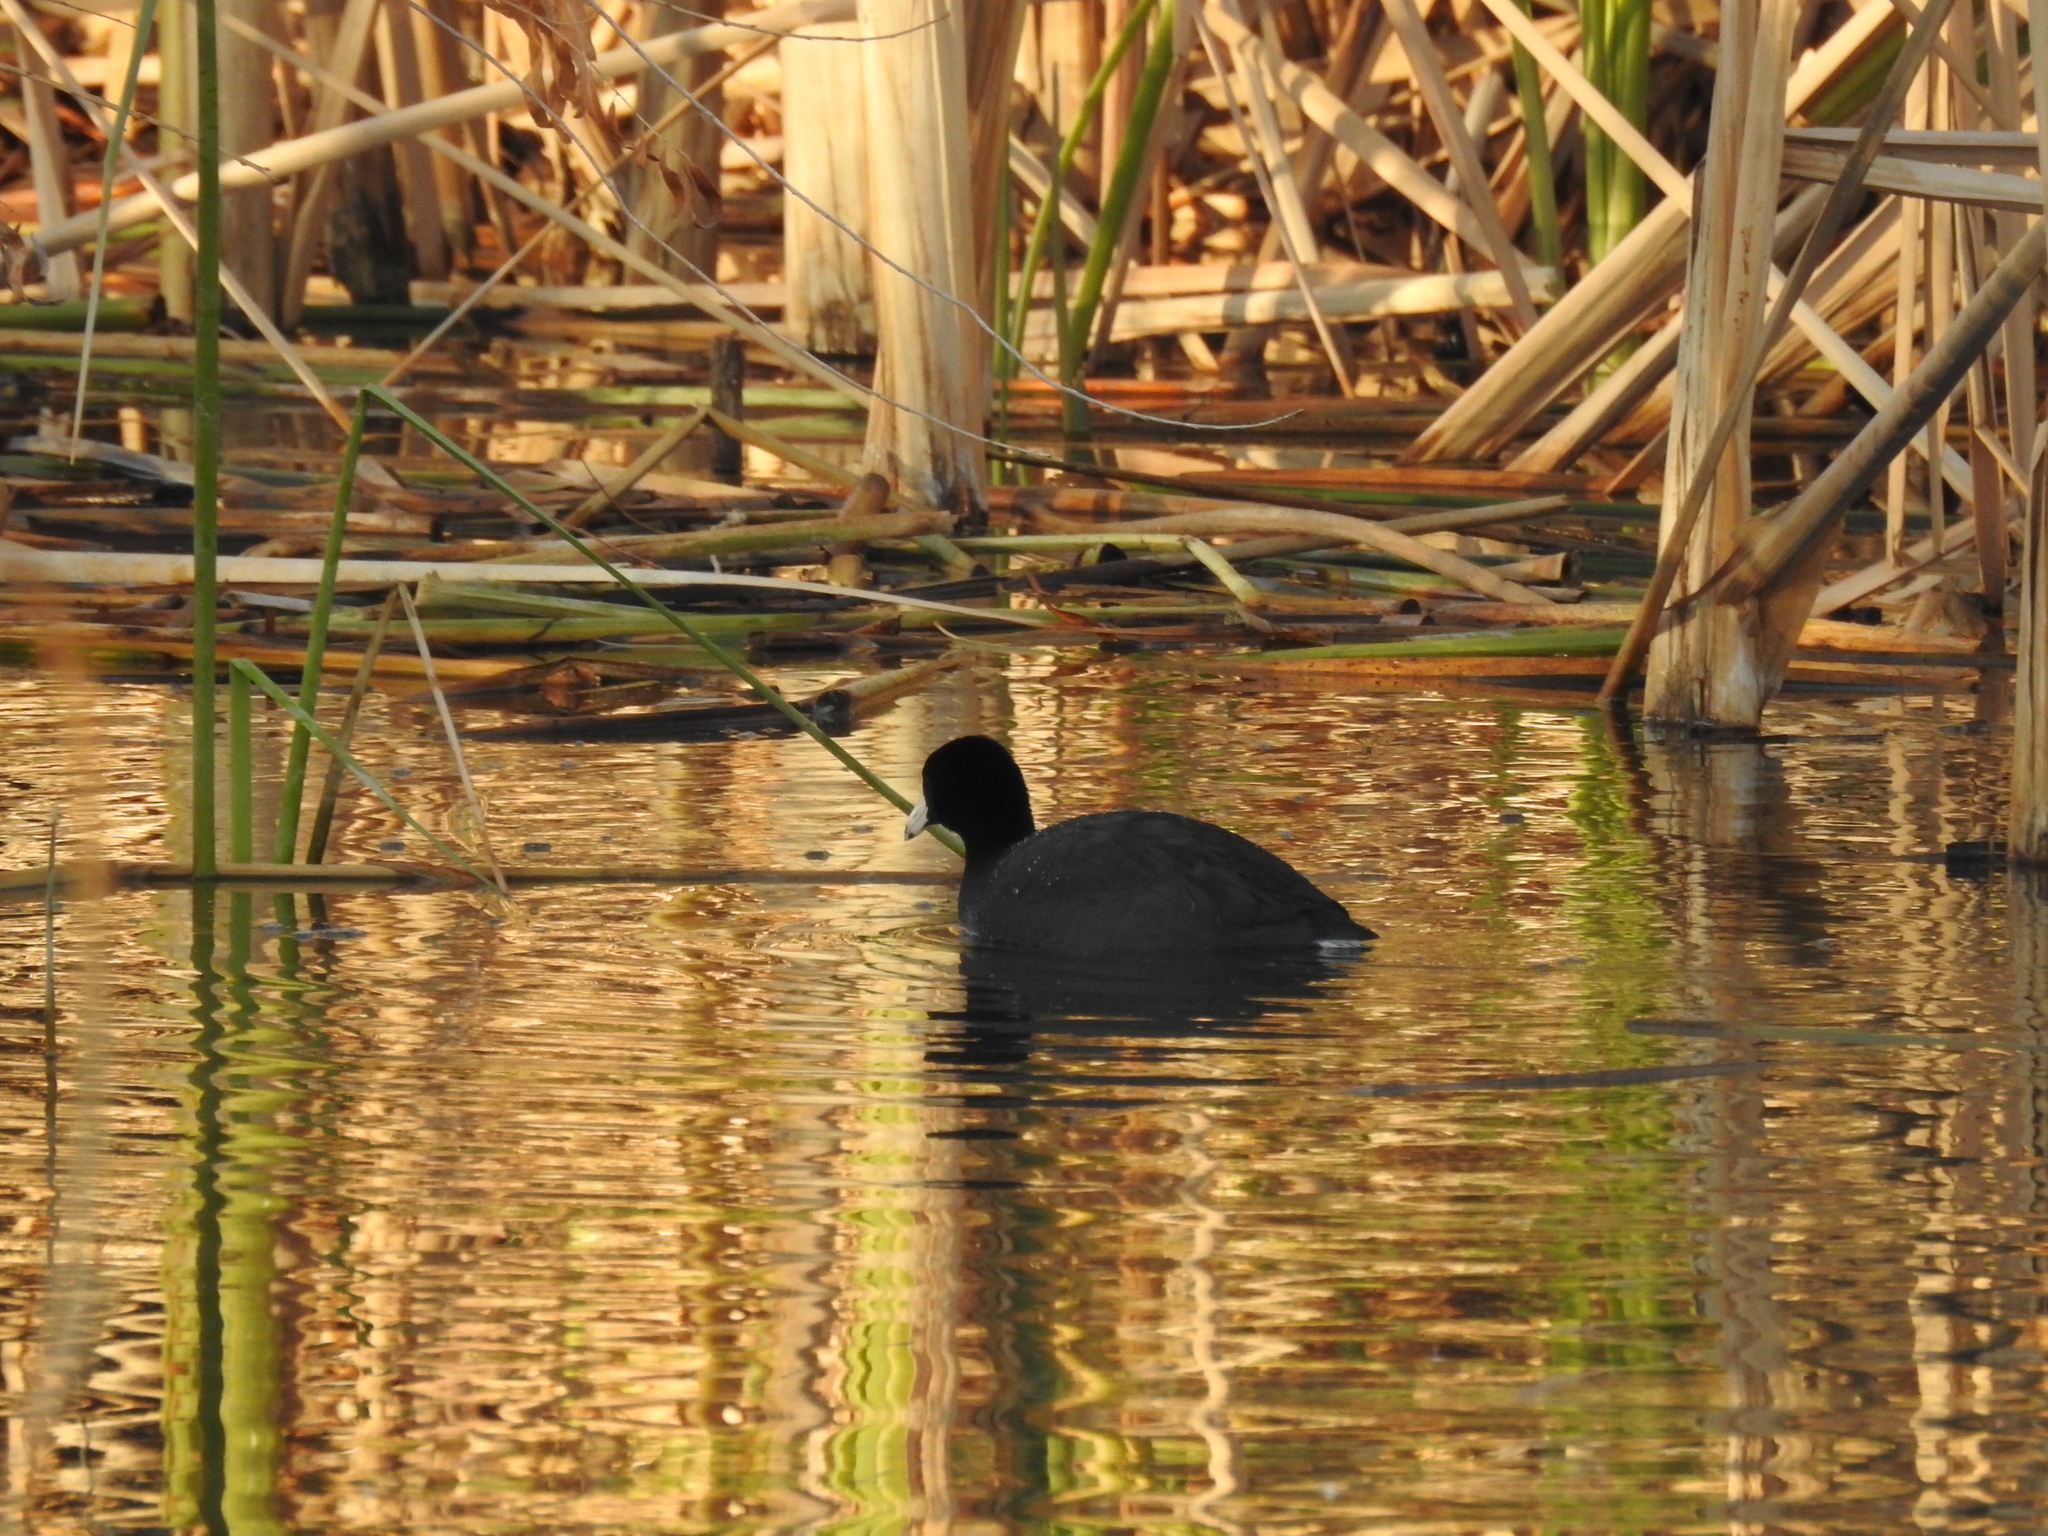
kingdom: Animalia
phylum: Chordata
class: Aves
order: Gruiformes
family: Rallidae
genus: Fulica
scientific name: Fulica americana
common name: American coot
